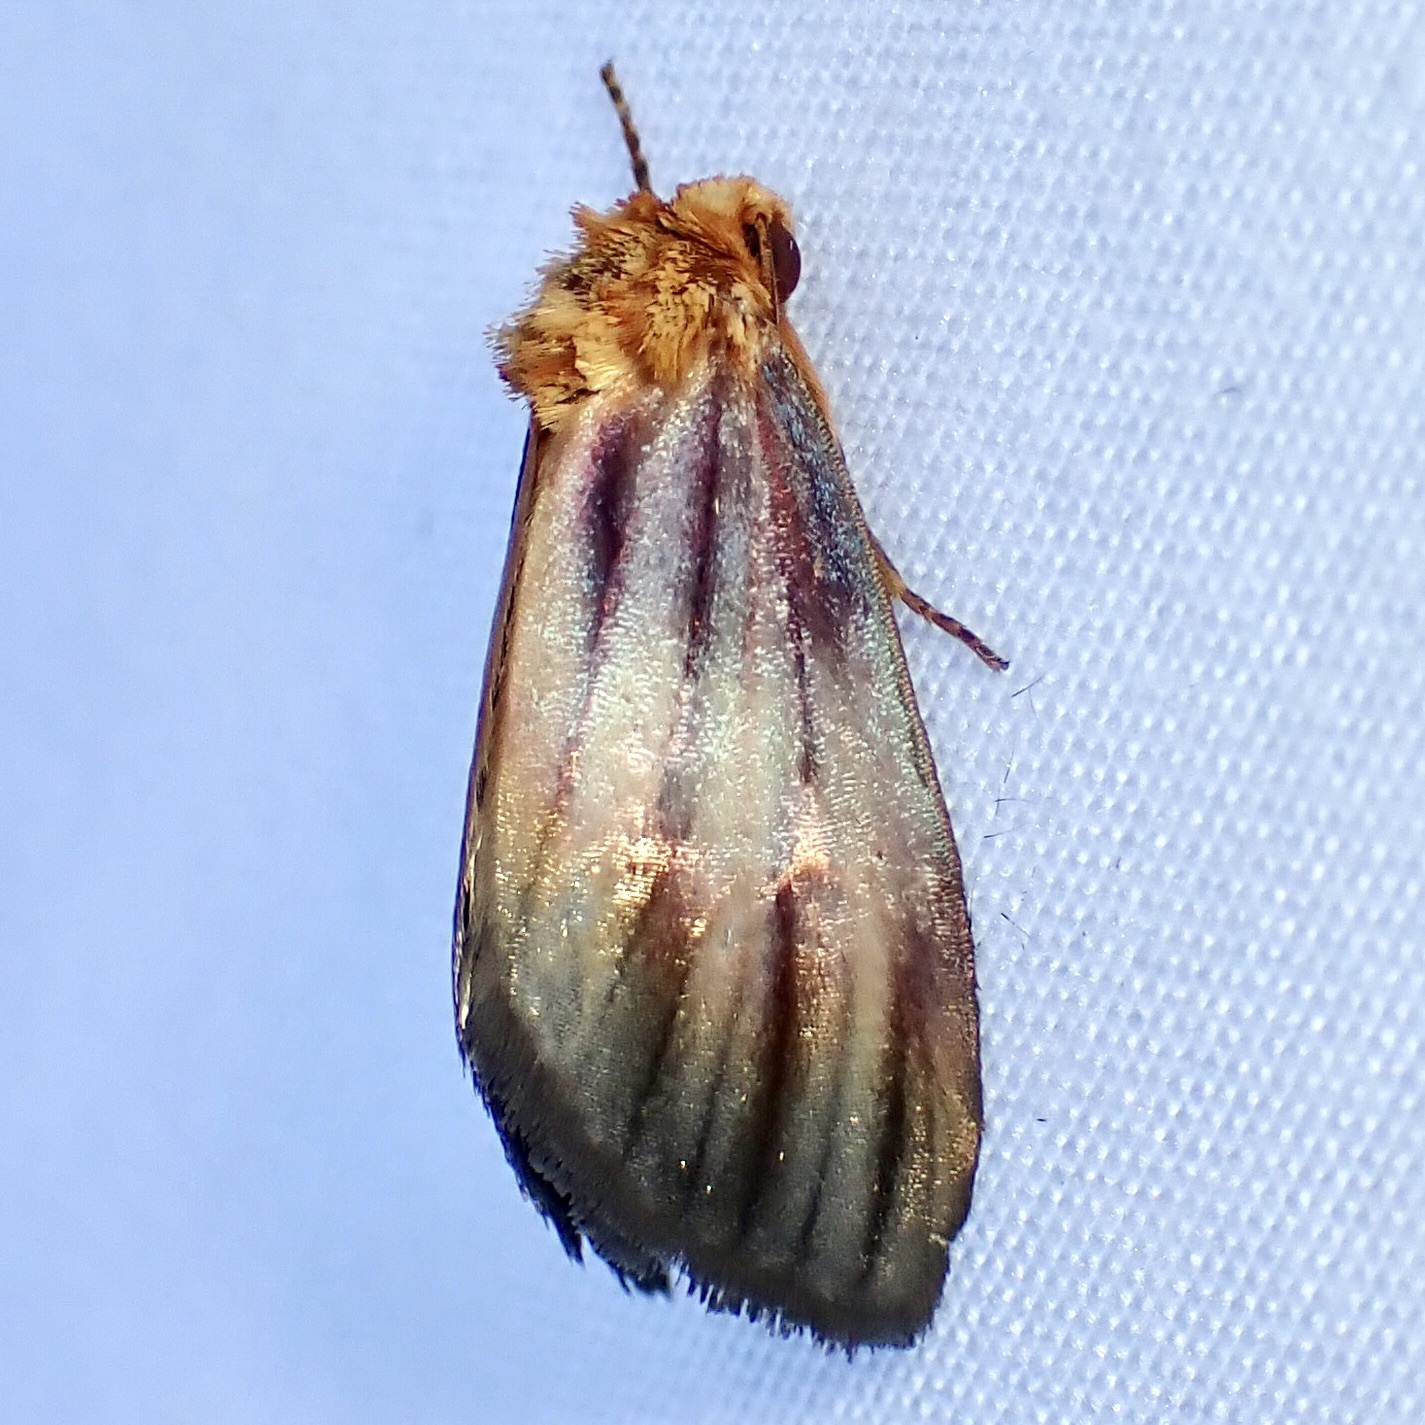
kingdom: Animalia
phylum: Arthropoda
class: Insecta
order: Lepidoptera
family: Noctuidae
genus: Antaplaga
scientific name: Antaplaga plesioglauca
